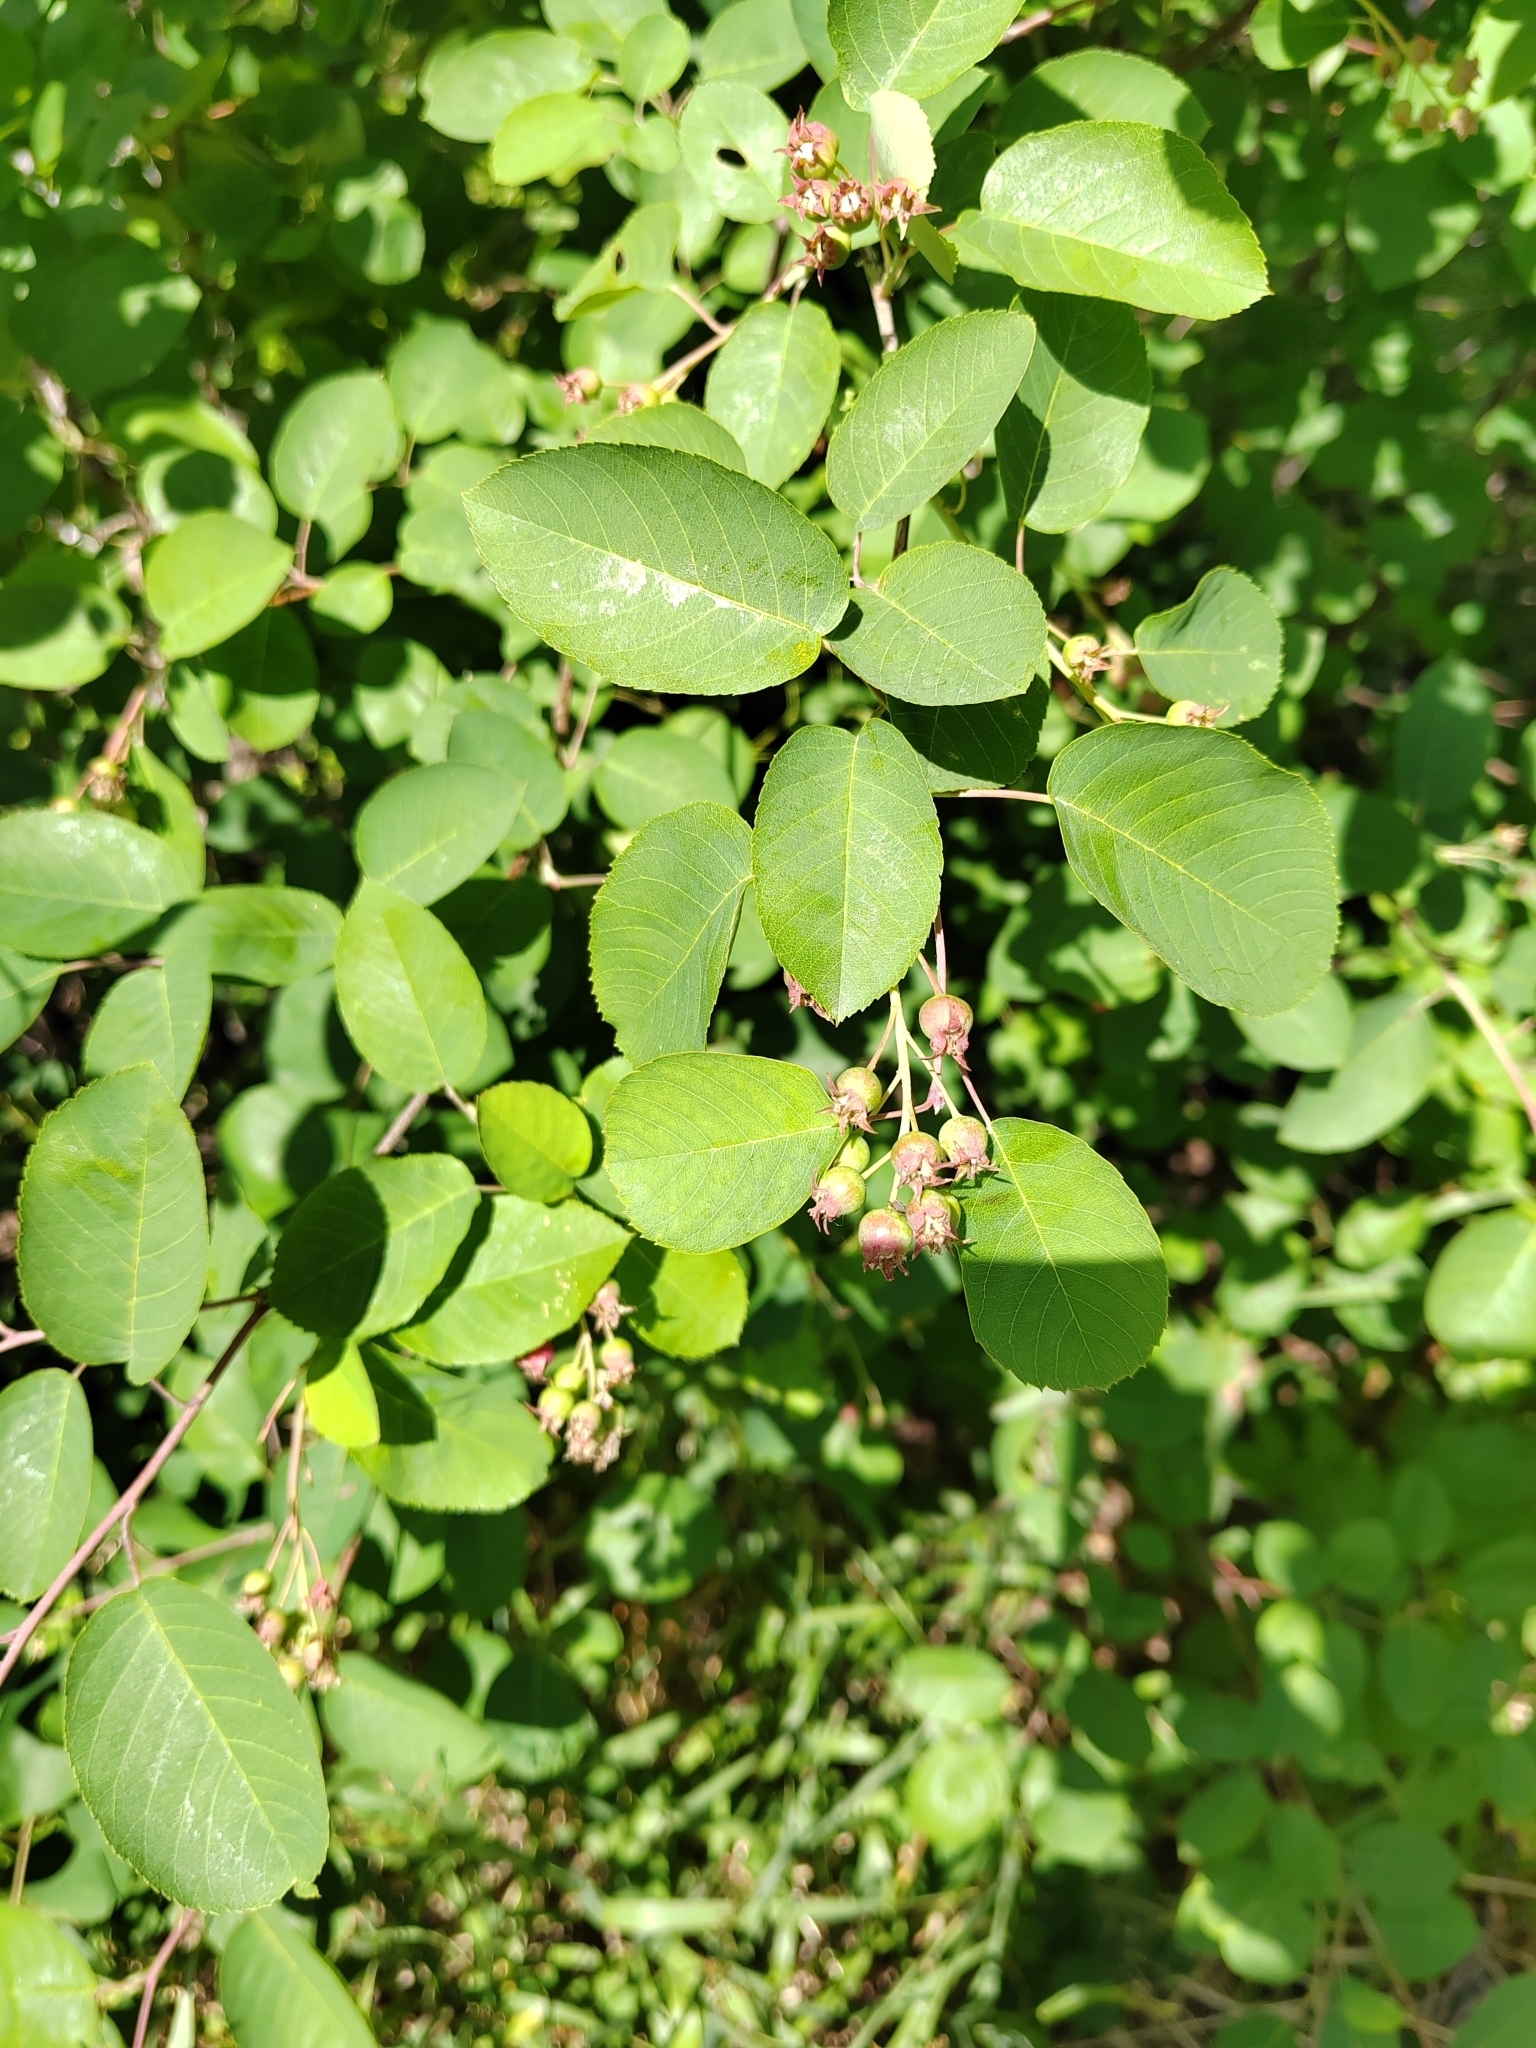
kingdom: Plantae
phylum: Tracheophyta
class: Magnoliopsida
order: Rosales
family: Rosaceae
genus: Amelanchier
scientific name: Amelanchier
